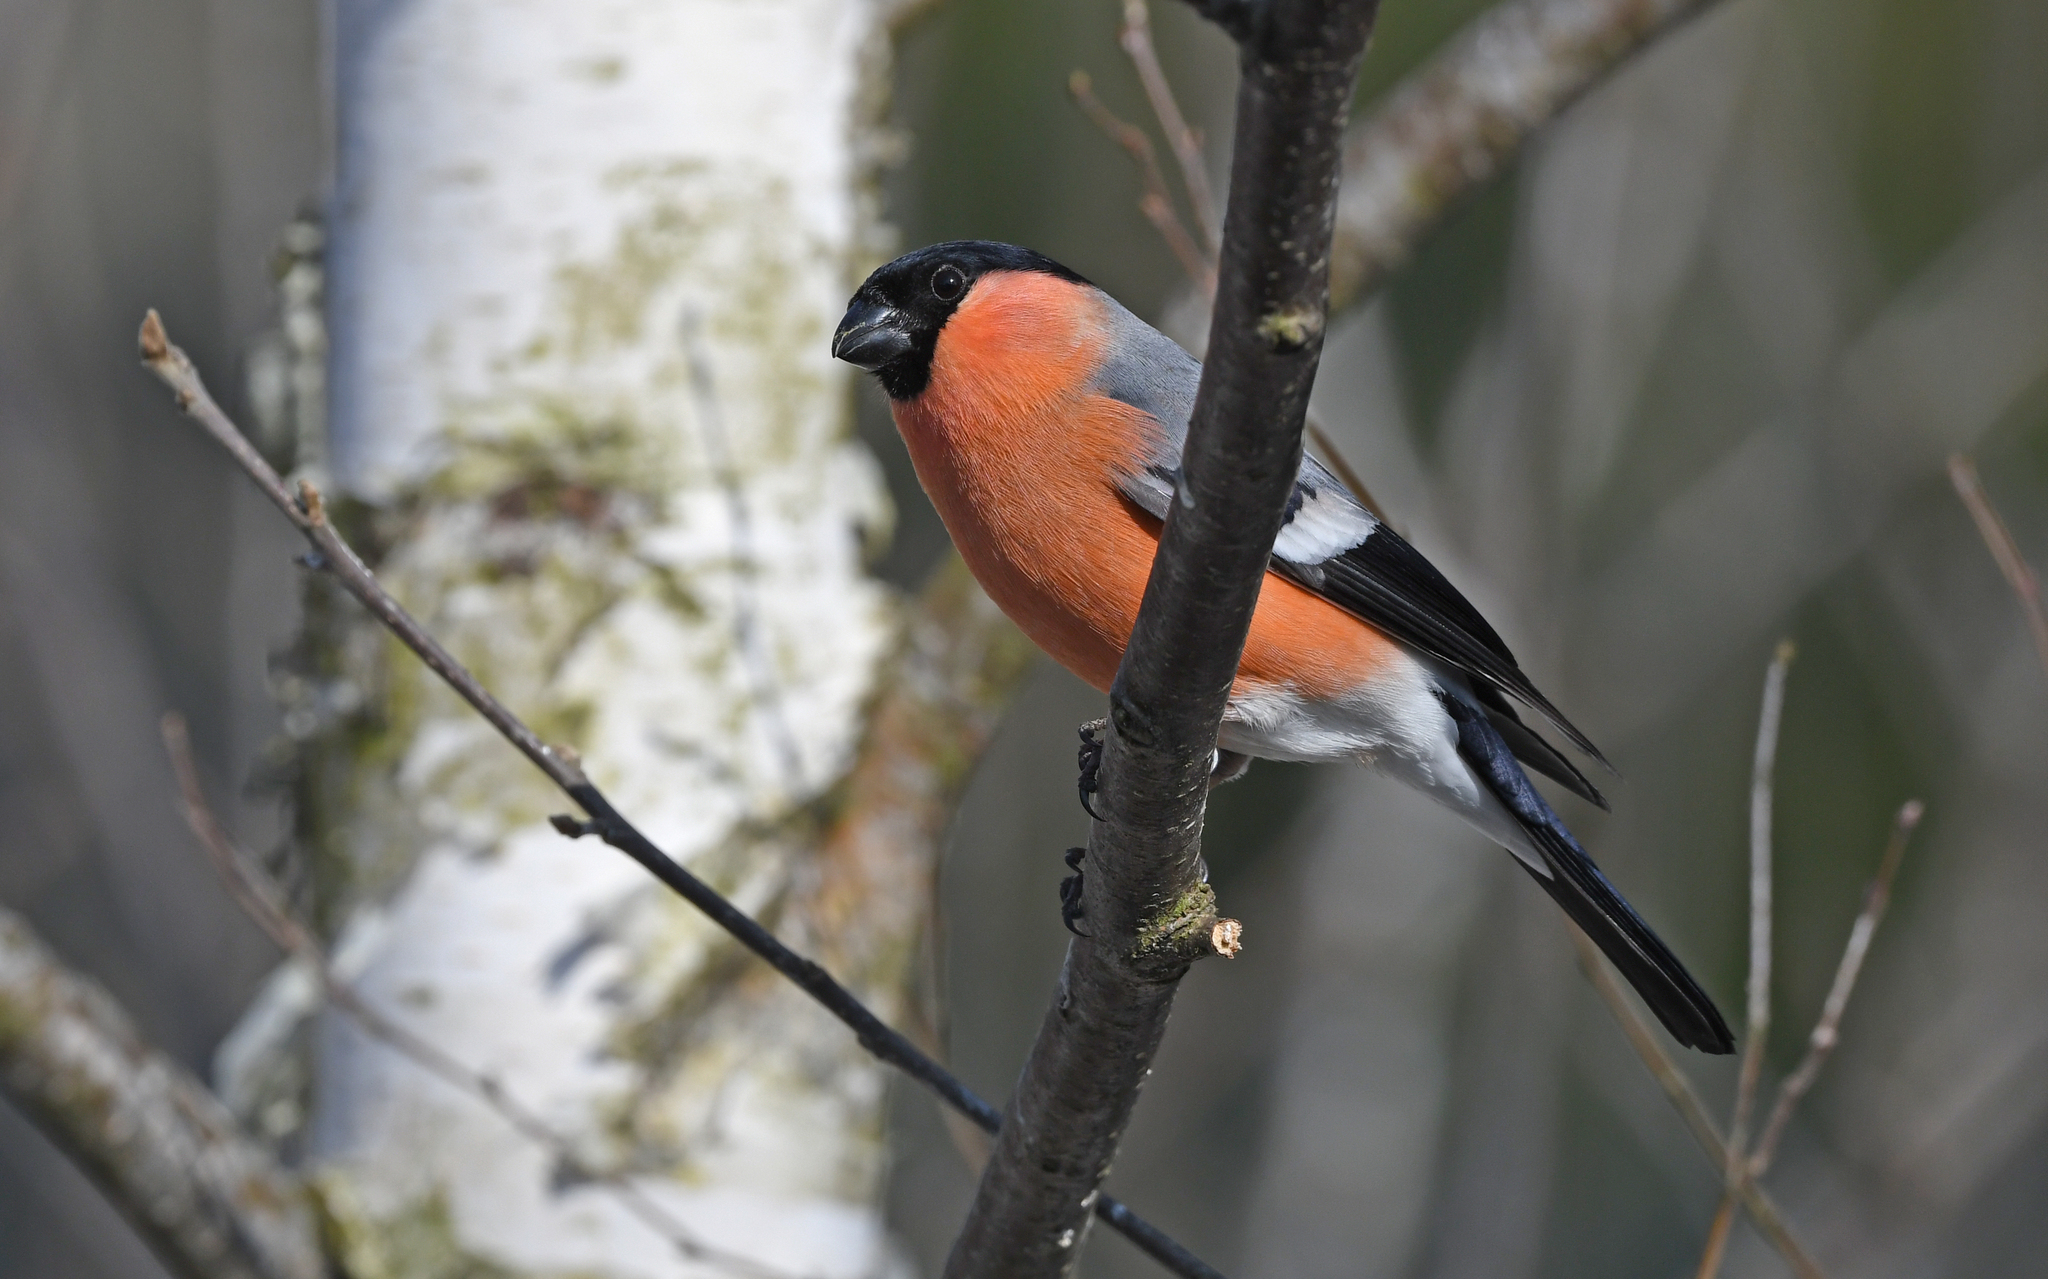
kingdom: Animalia
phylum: Chordata
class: Aves
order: Passeriformes
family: Fringillidae
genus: Pyrrhula
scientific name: Pyrrhula pyrrhula
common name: Eurasian bullfinch
